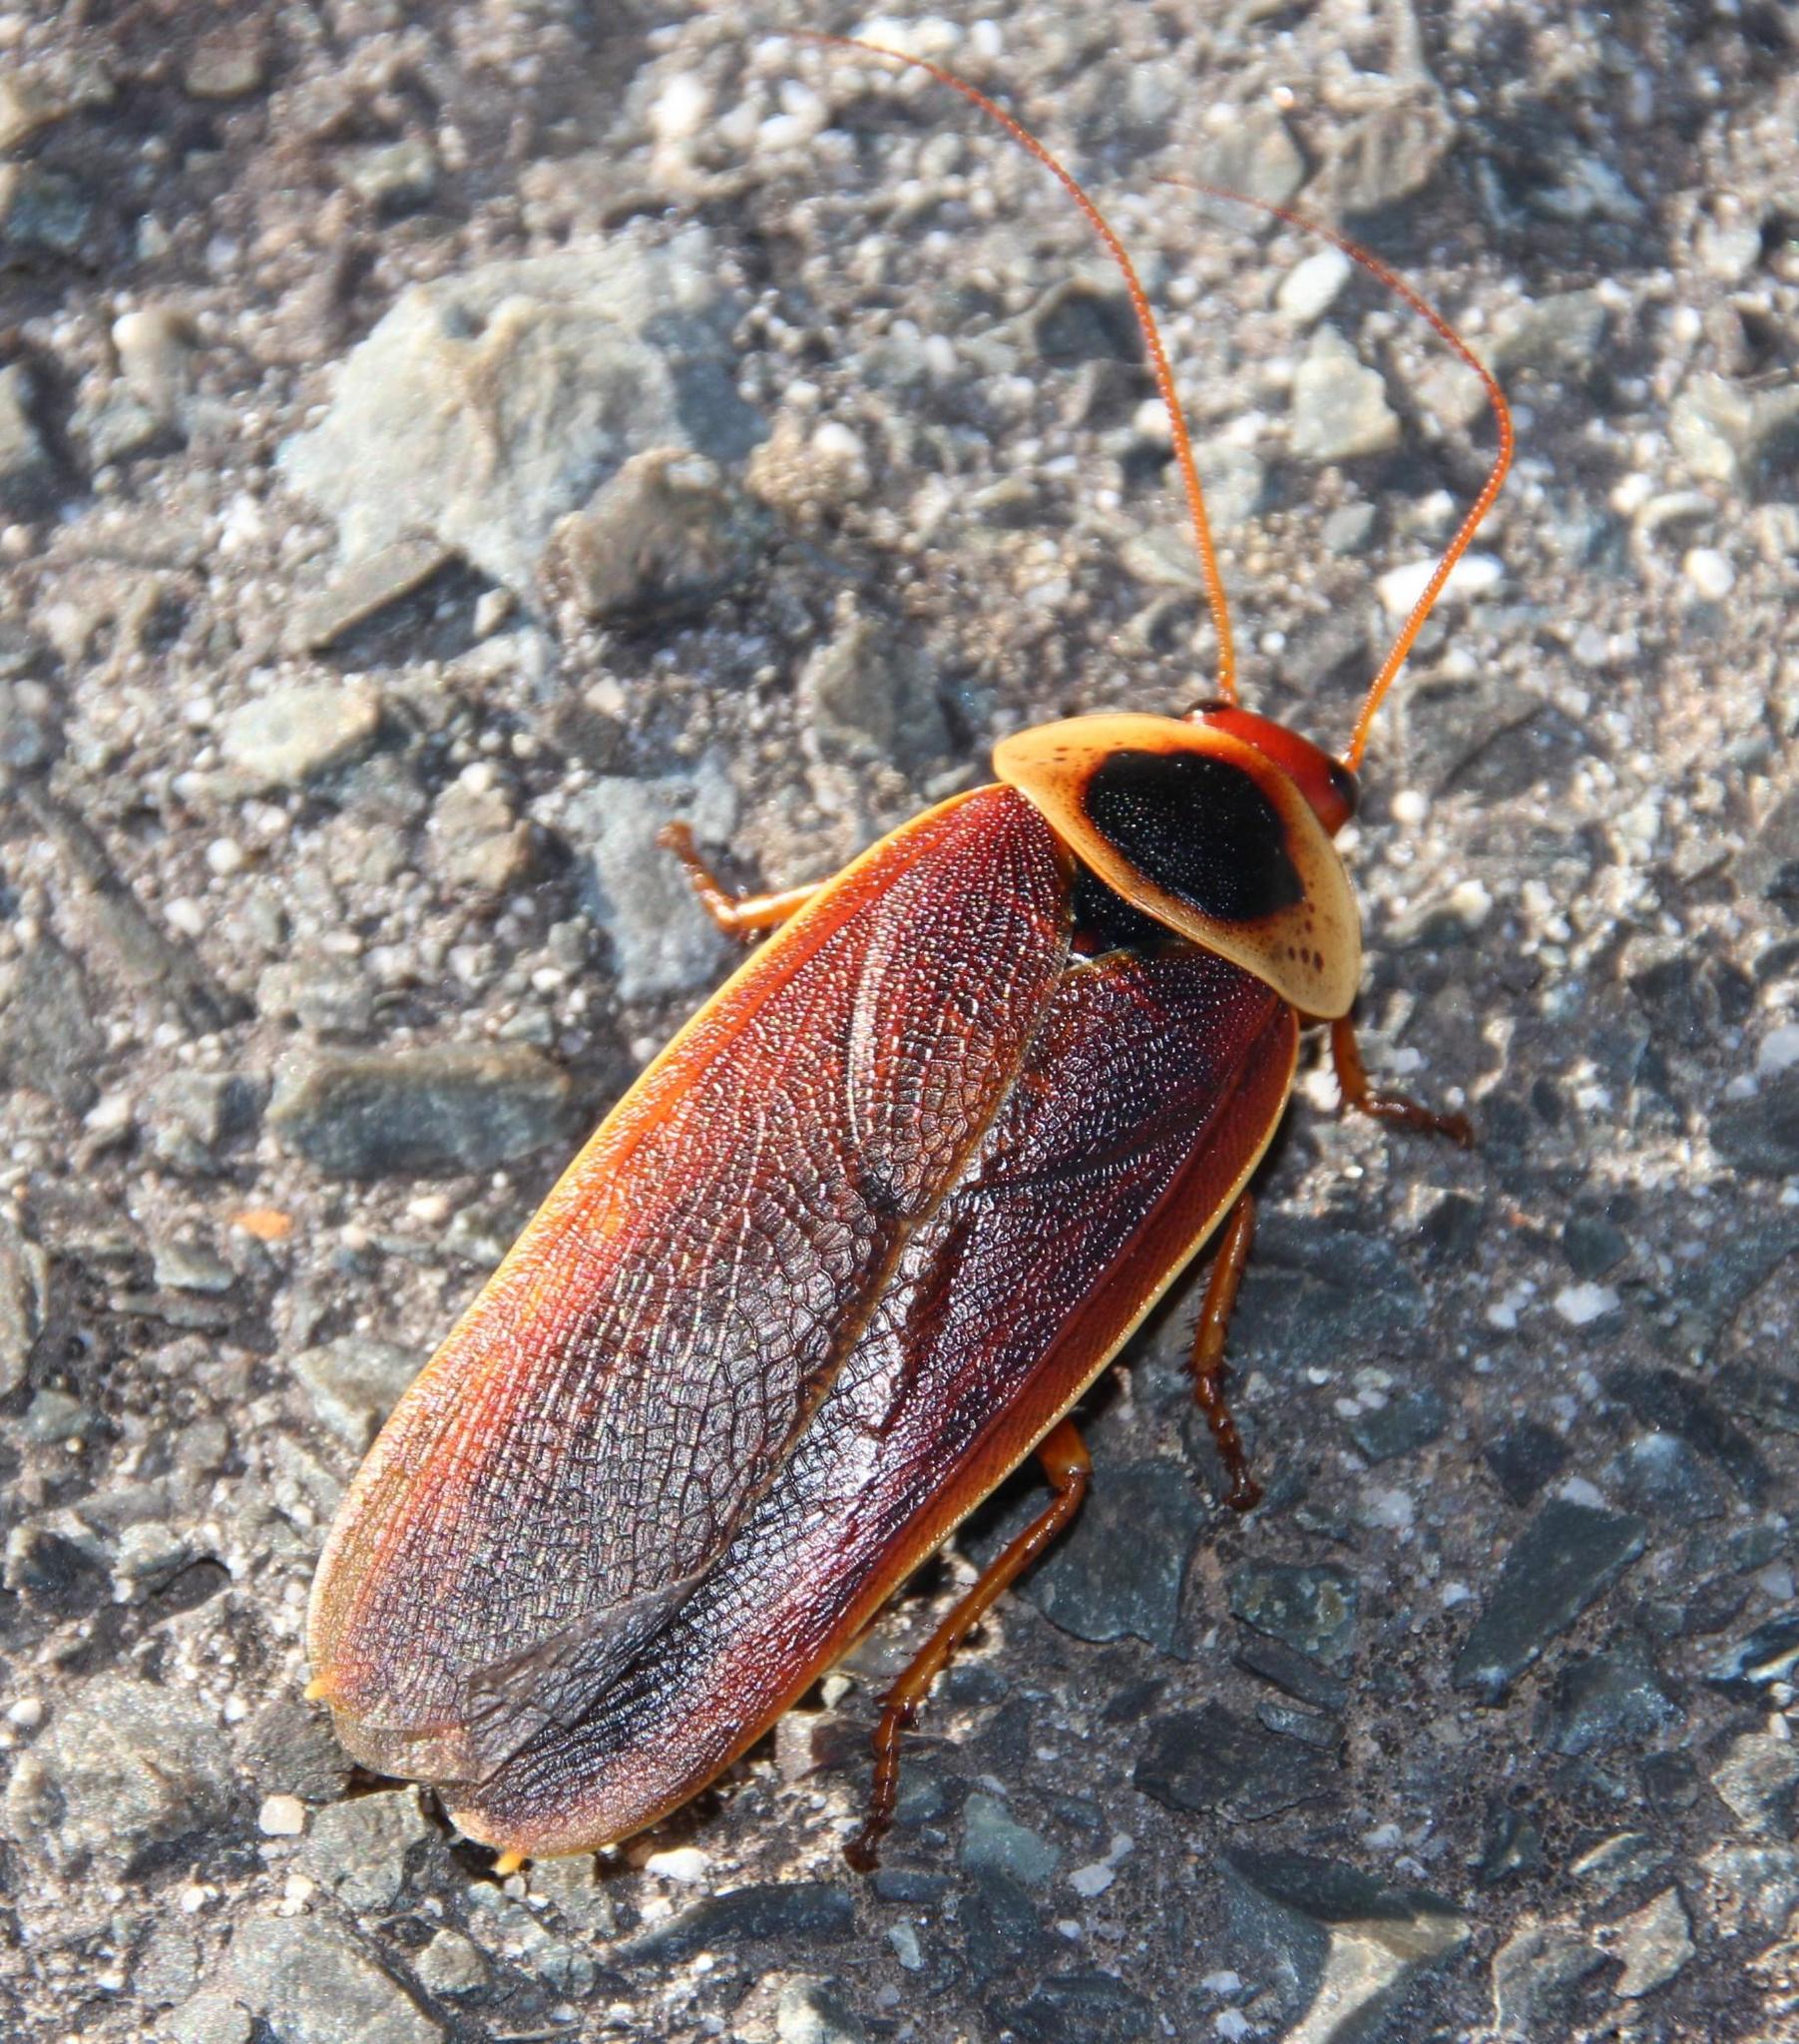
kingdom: Animalia
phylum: Arthropoda
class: Insecta
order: Blattodea
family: Blaberidae
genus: Aptera
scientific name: Aptera fusca
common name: Cape mountain cockroach
